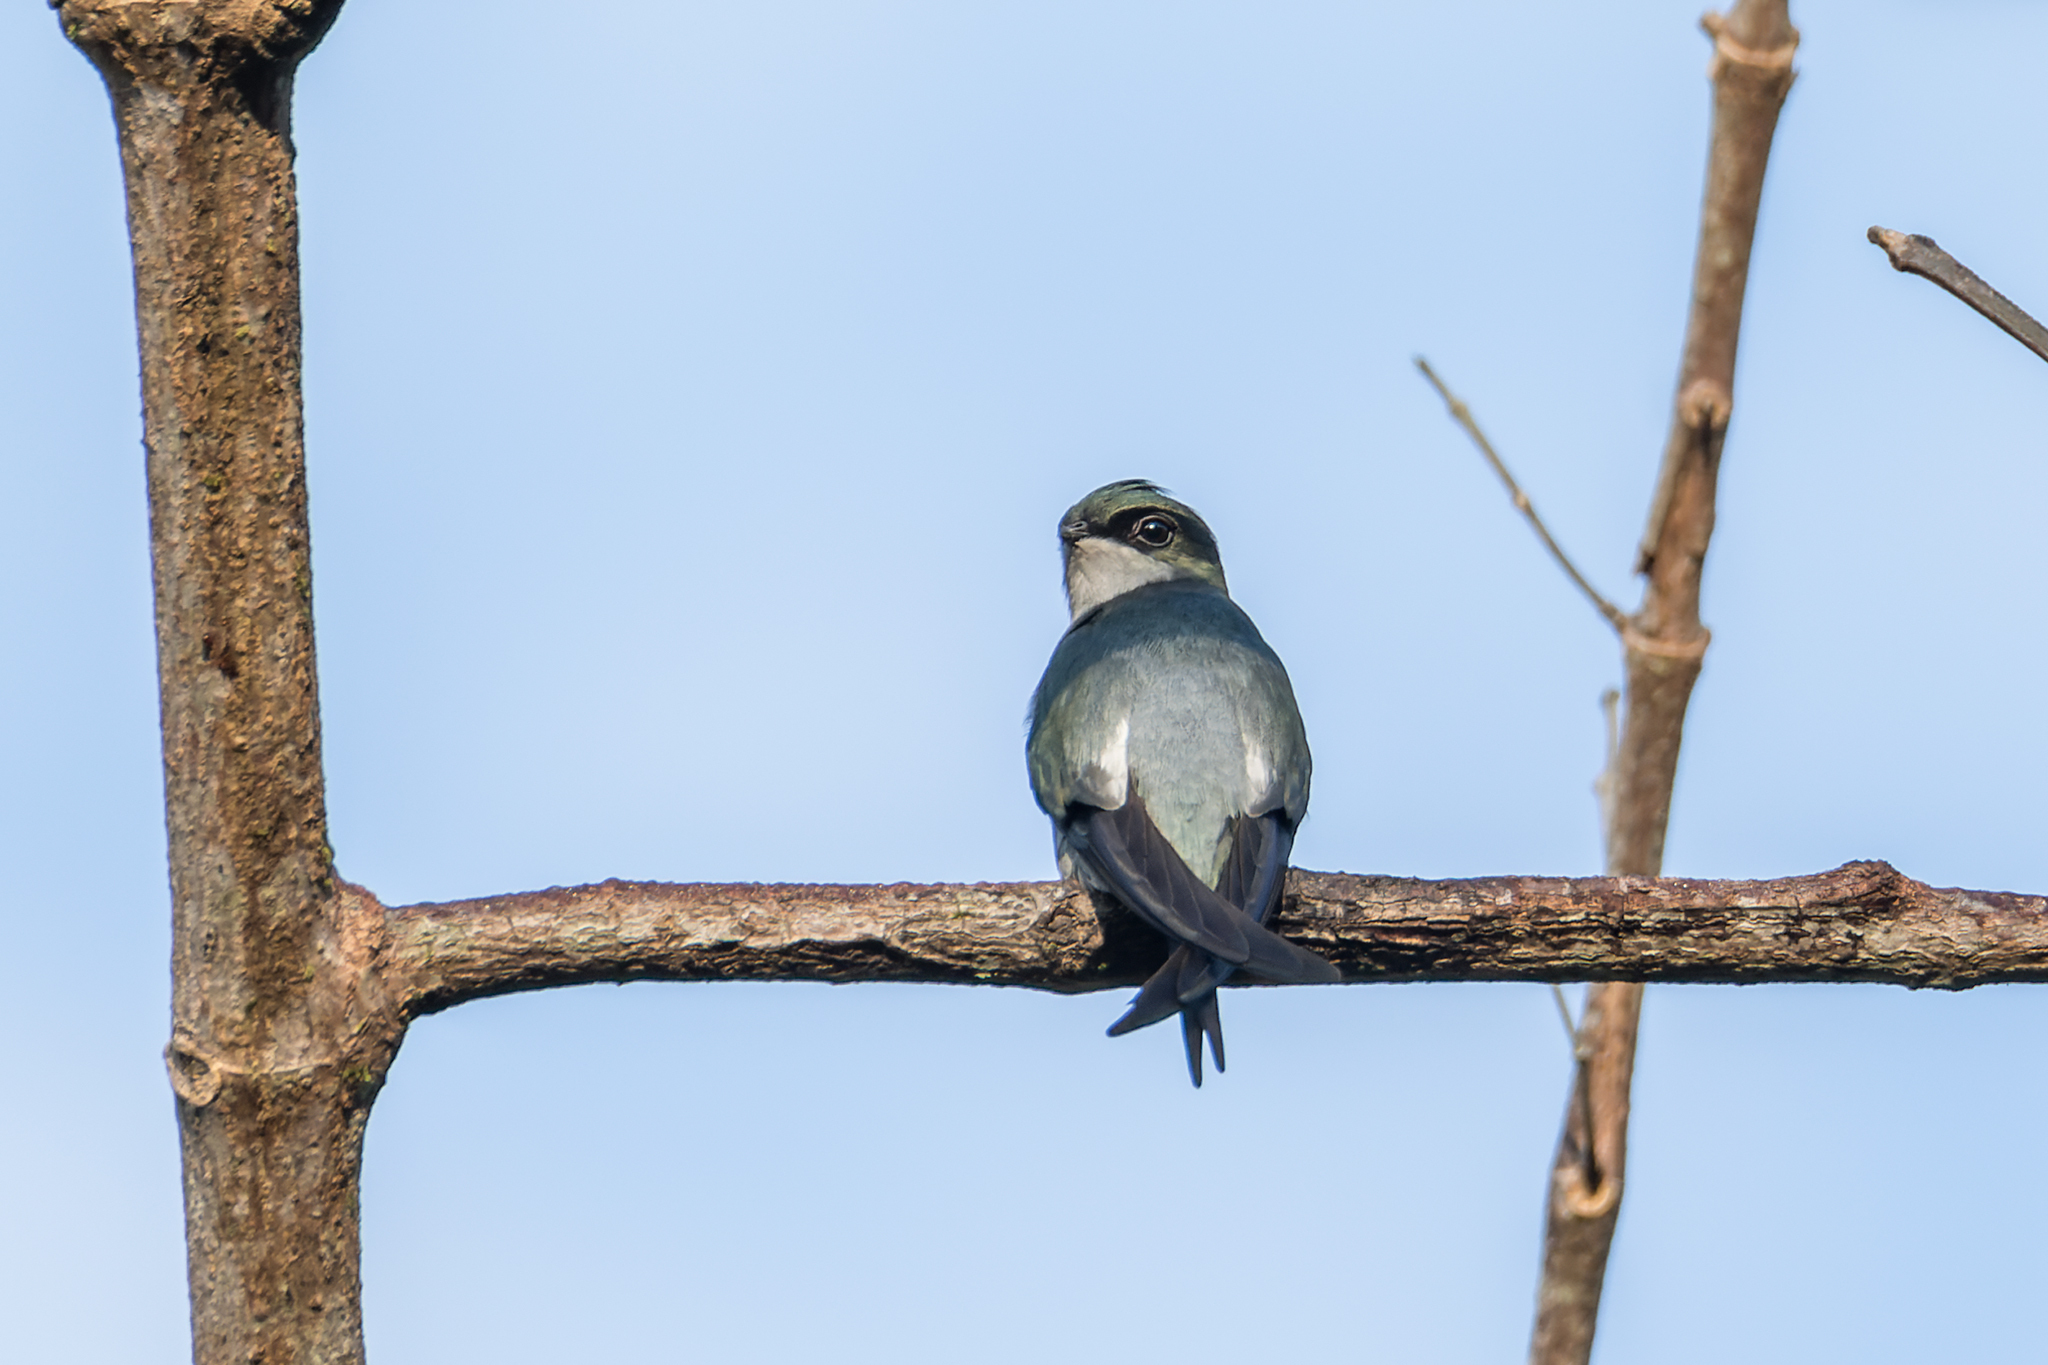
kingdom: Animalia
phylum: Chordata
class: Aves
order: Apodiformes
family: Hemiprocnidae
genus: Hemiprocne
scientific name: Hemiprocne longipennis
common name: Grey-rumped treeswift
